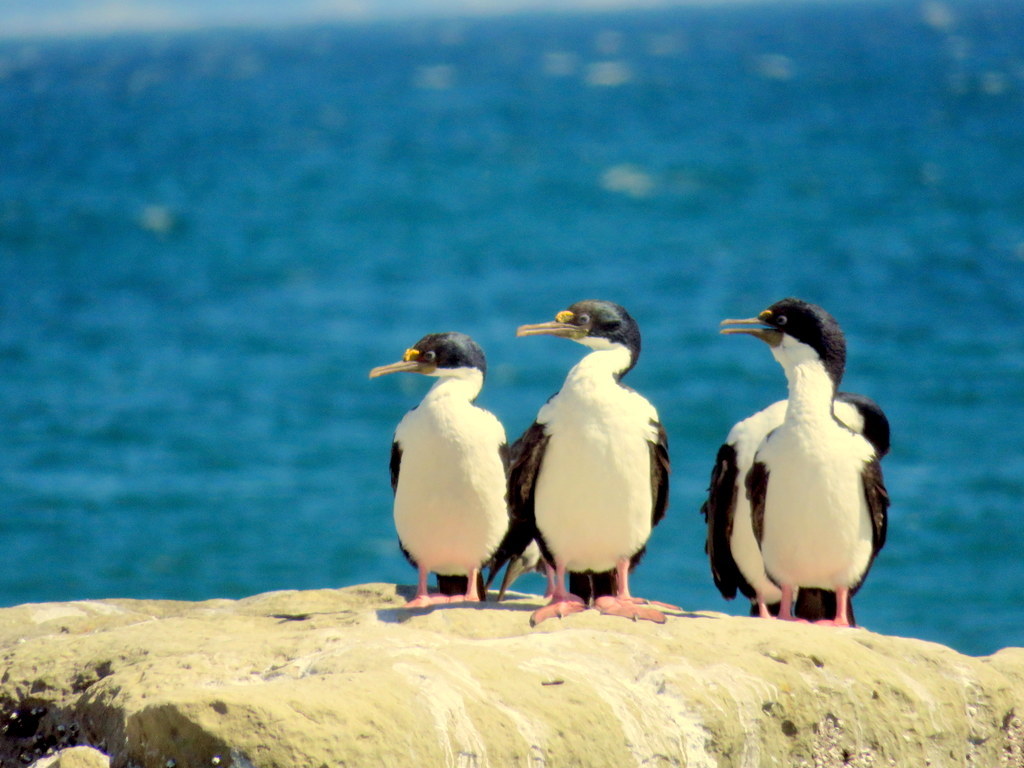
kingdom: Animalia
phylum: Chordata
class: Aves
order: Suliformes
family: Phalacrocoracidae
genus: Leucocarbo
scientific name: Leucocarbo atriceps
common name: Imperial shag
